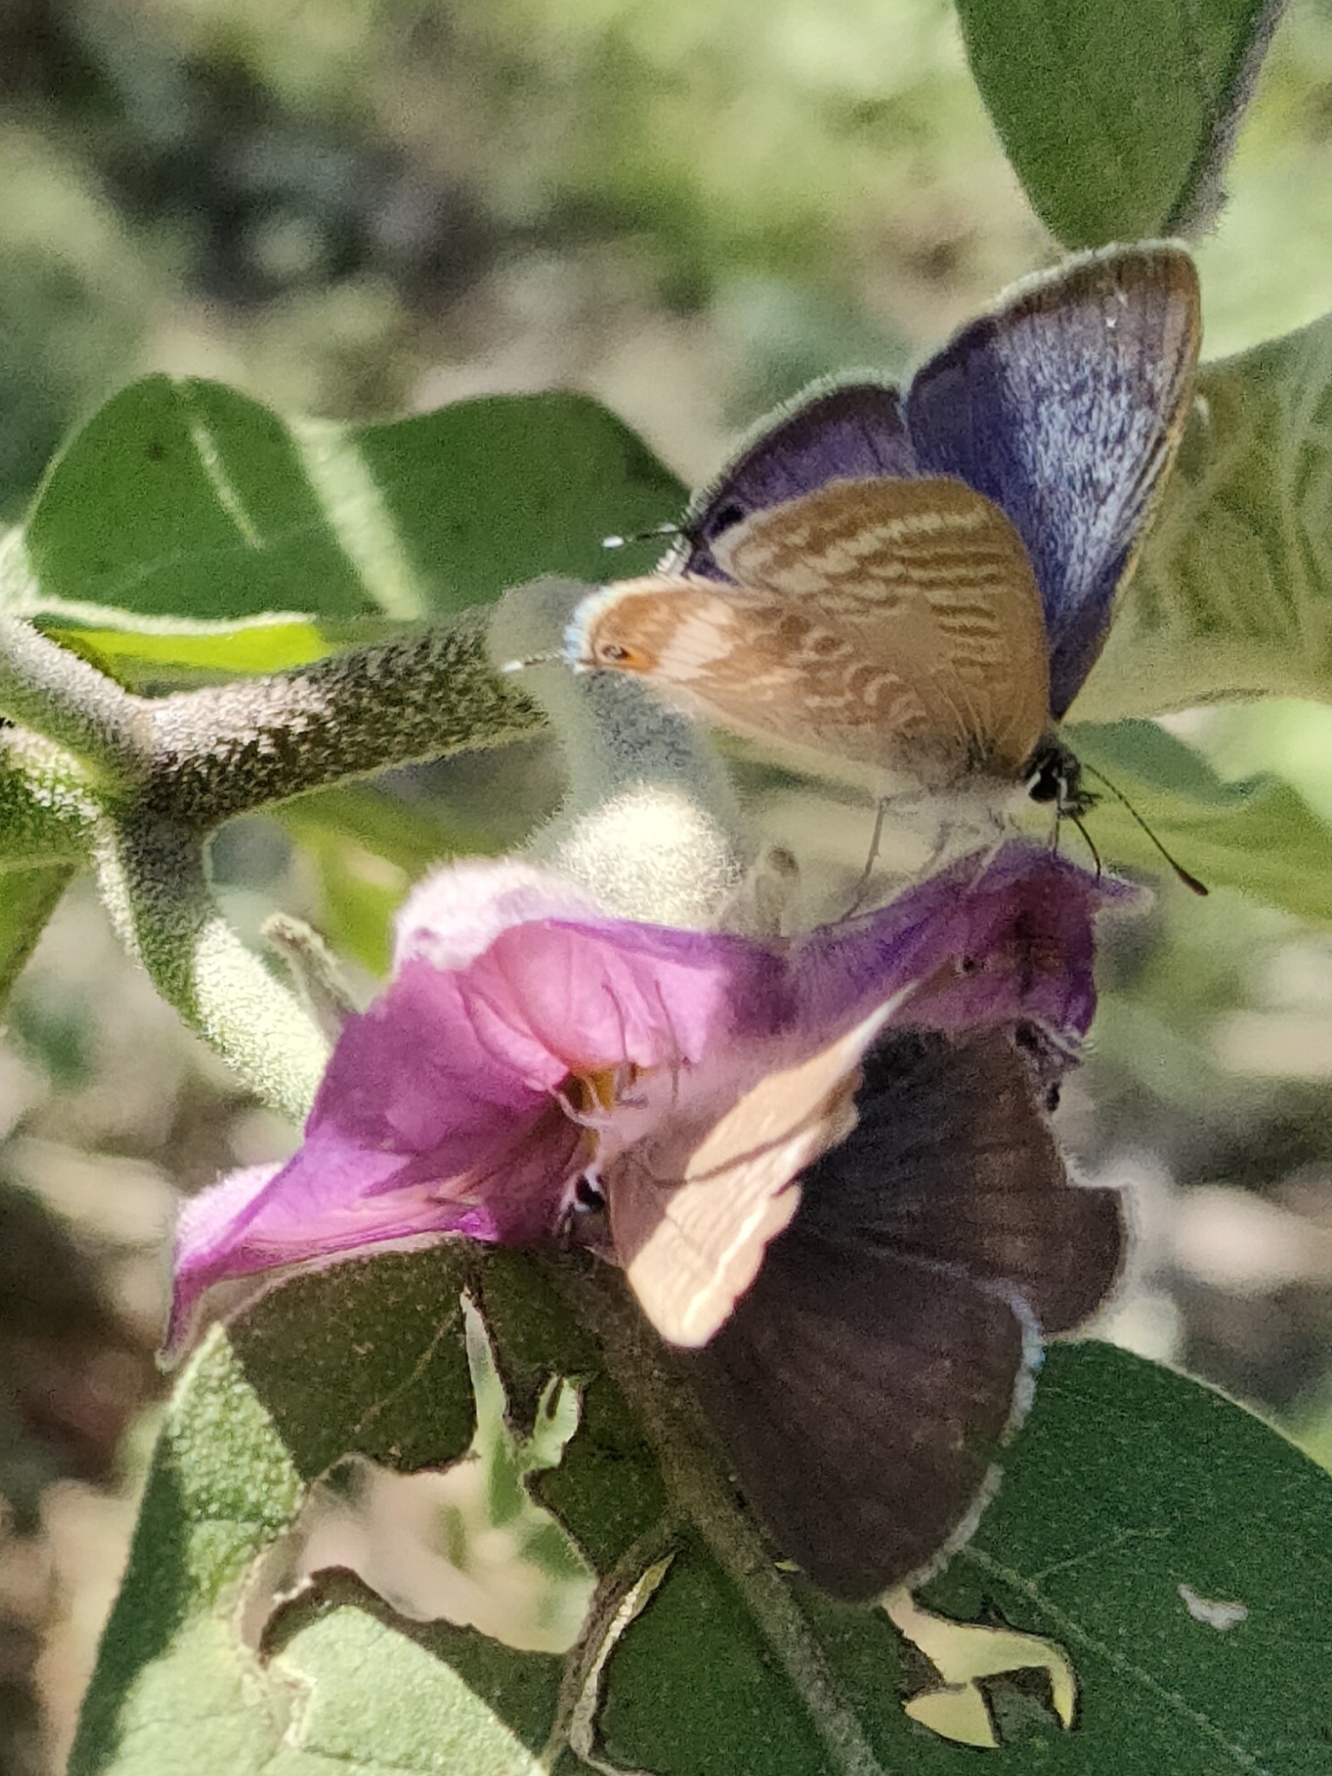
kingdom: Animalia
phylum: Arthropoda
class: Insecta
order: Lepidoptera
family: Lycaenidae
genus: Lampides
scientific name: Lampides boeticus
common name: Long-tailed blue
